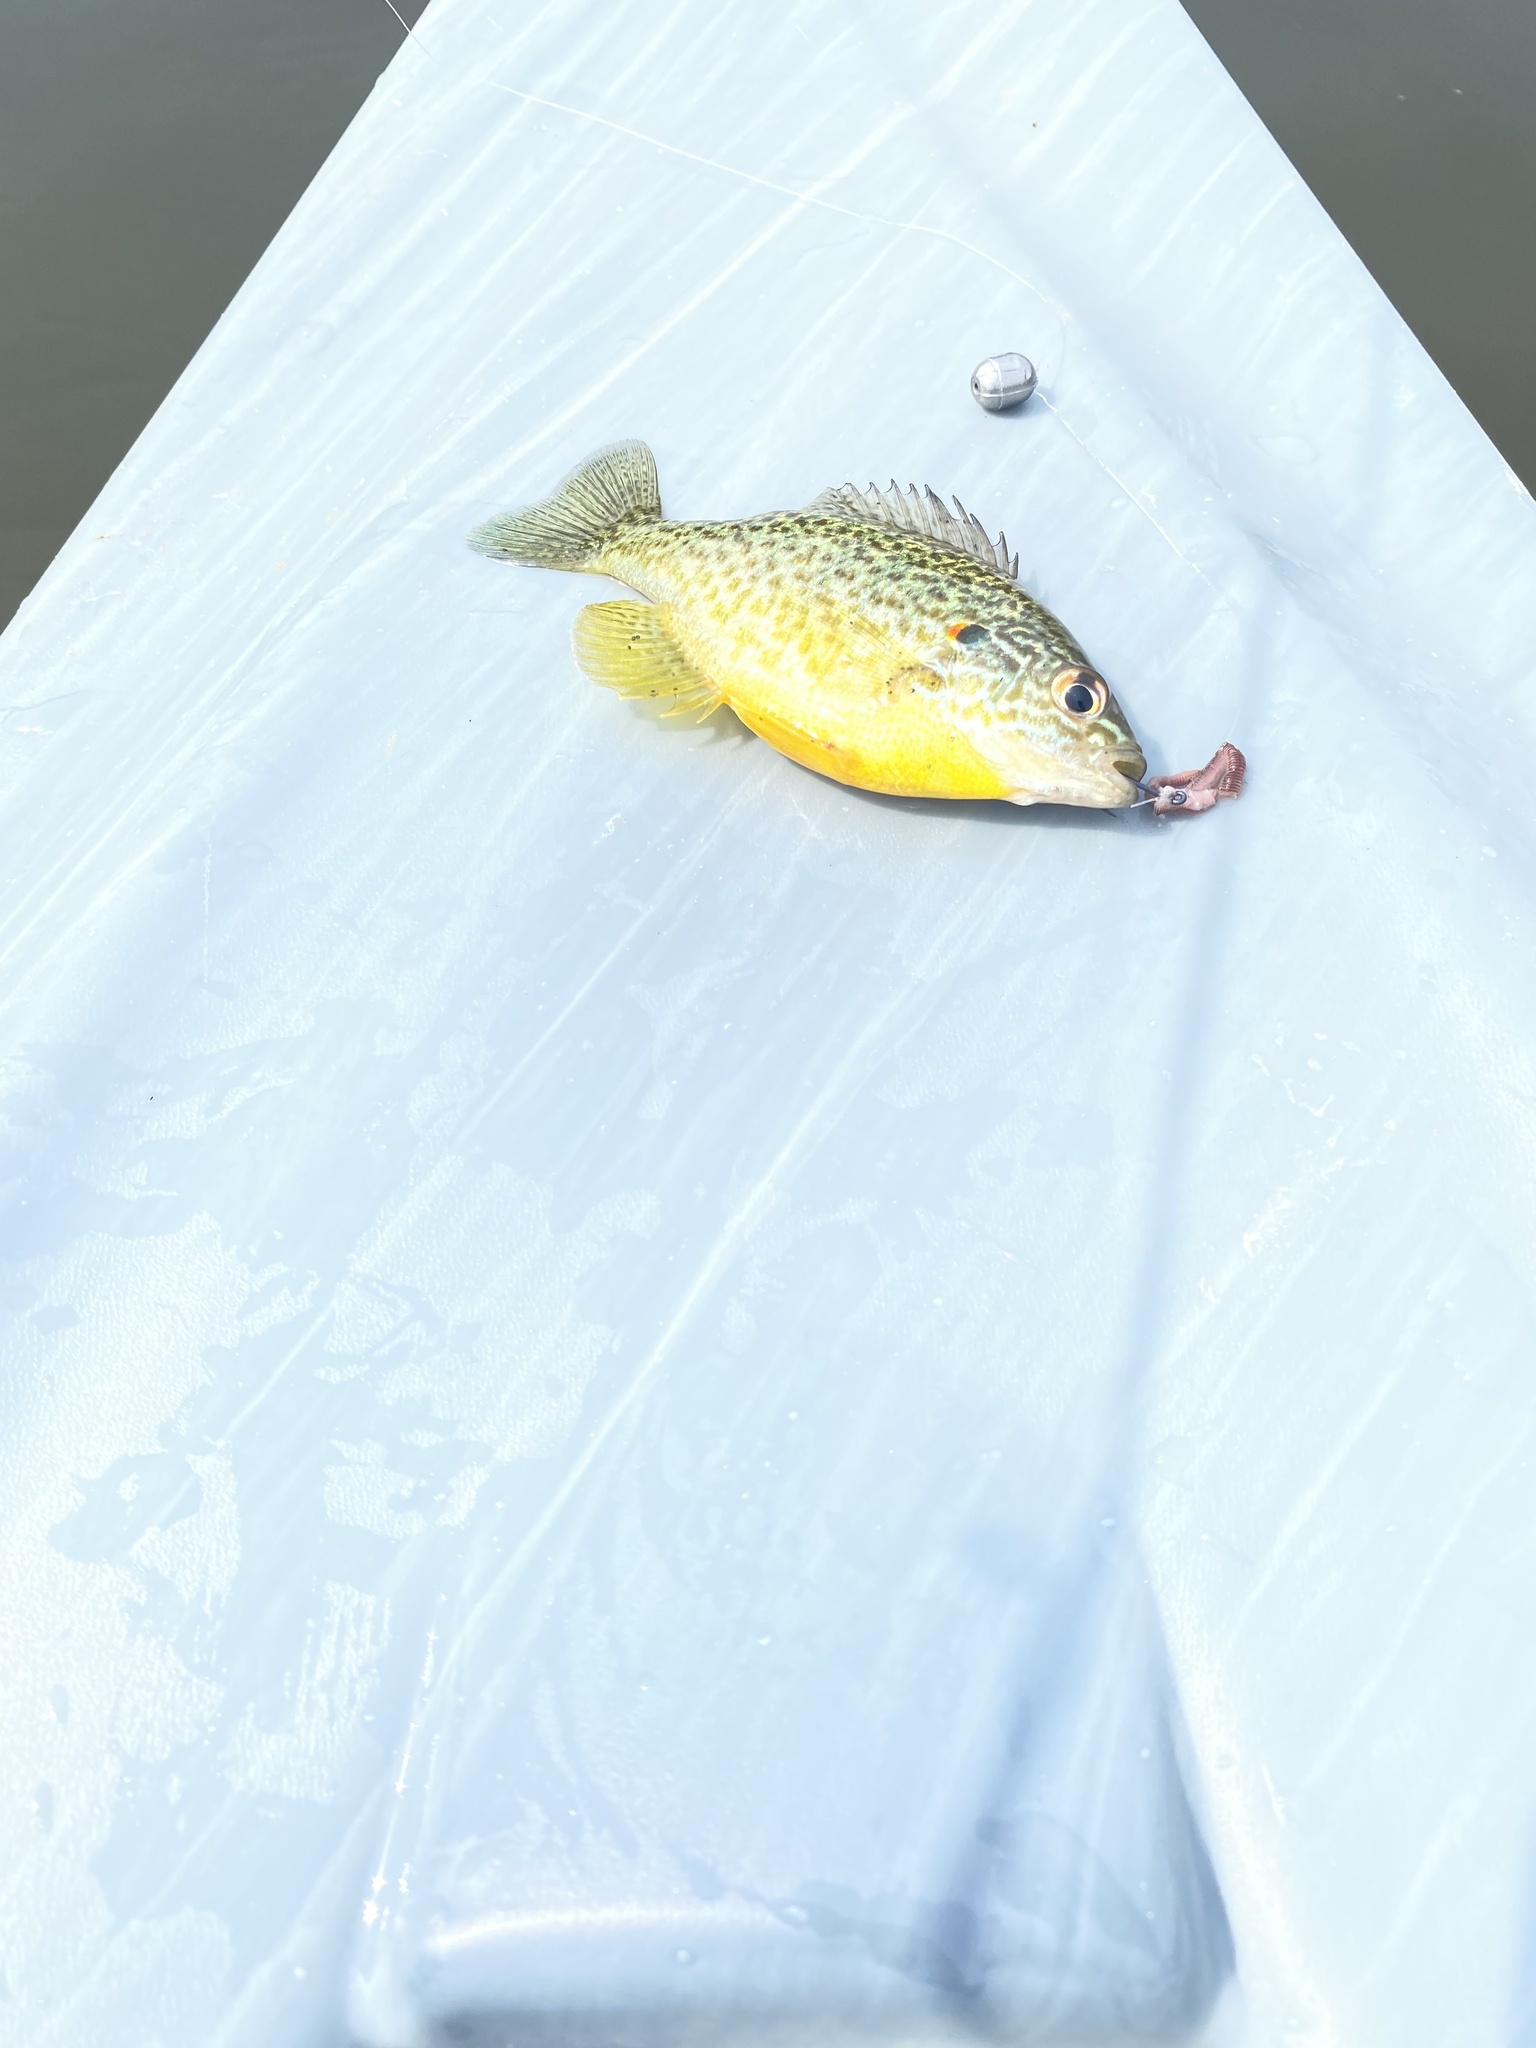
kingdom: Animalia
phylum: Chordata
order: Perciformes
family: Centrarchidae
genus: Lepomis
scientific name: Lepomis gibbosus
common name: Pumpkinseed
